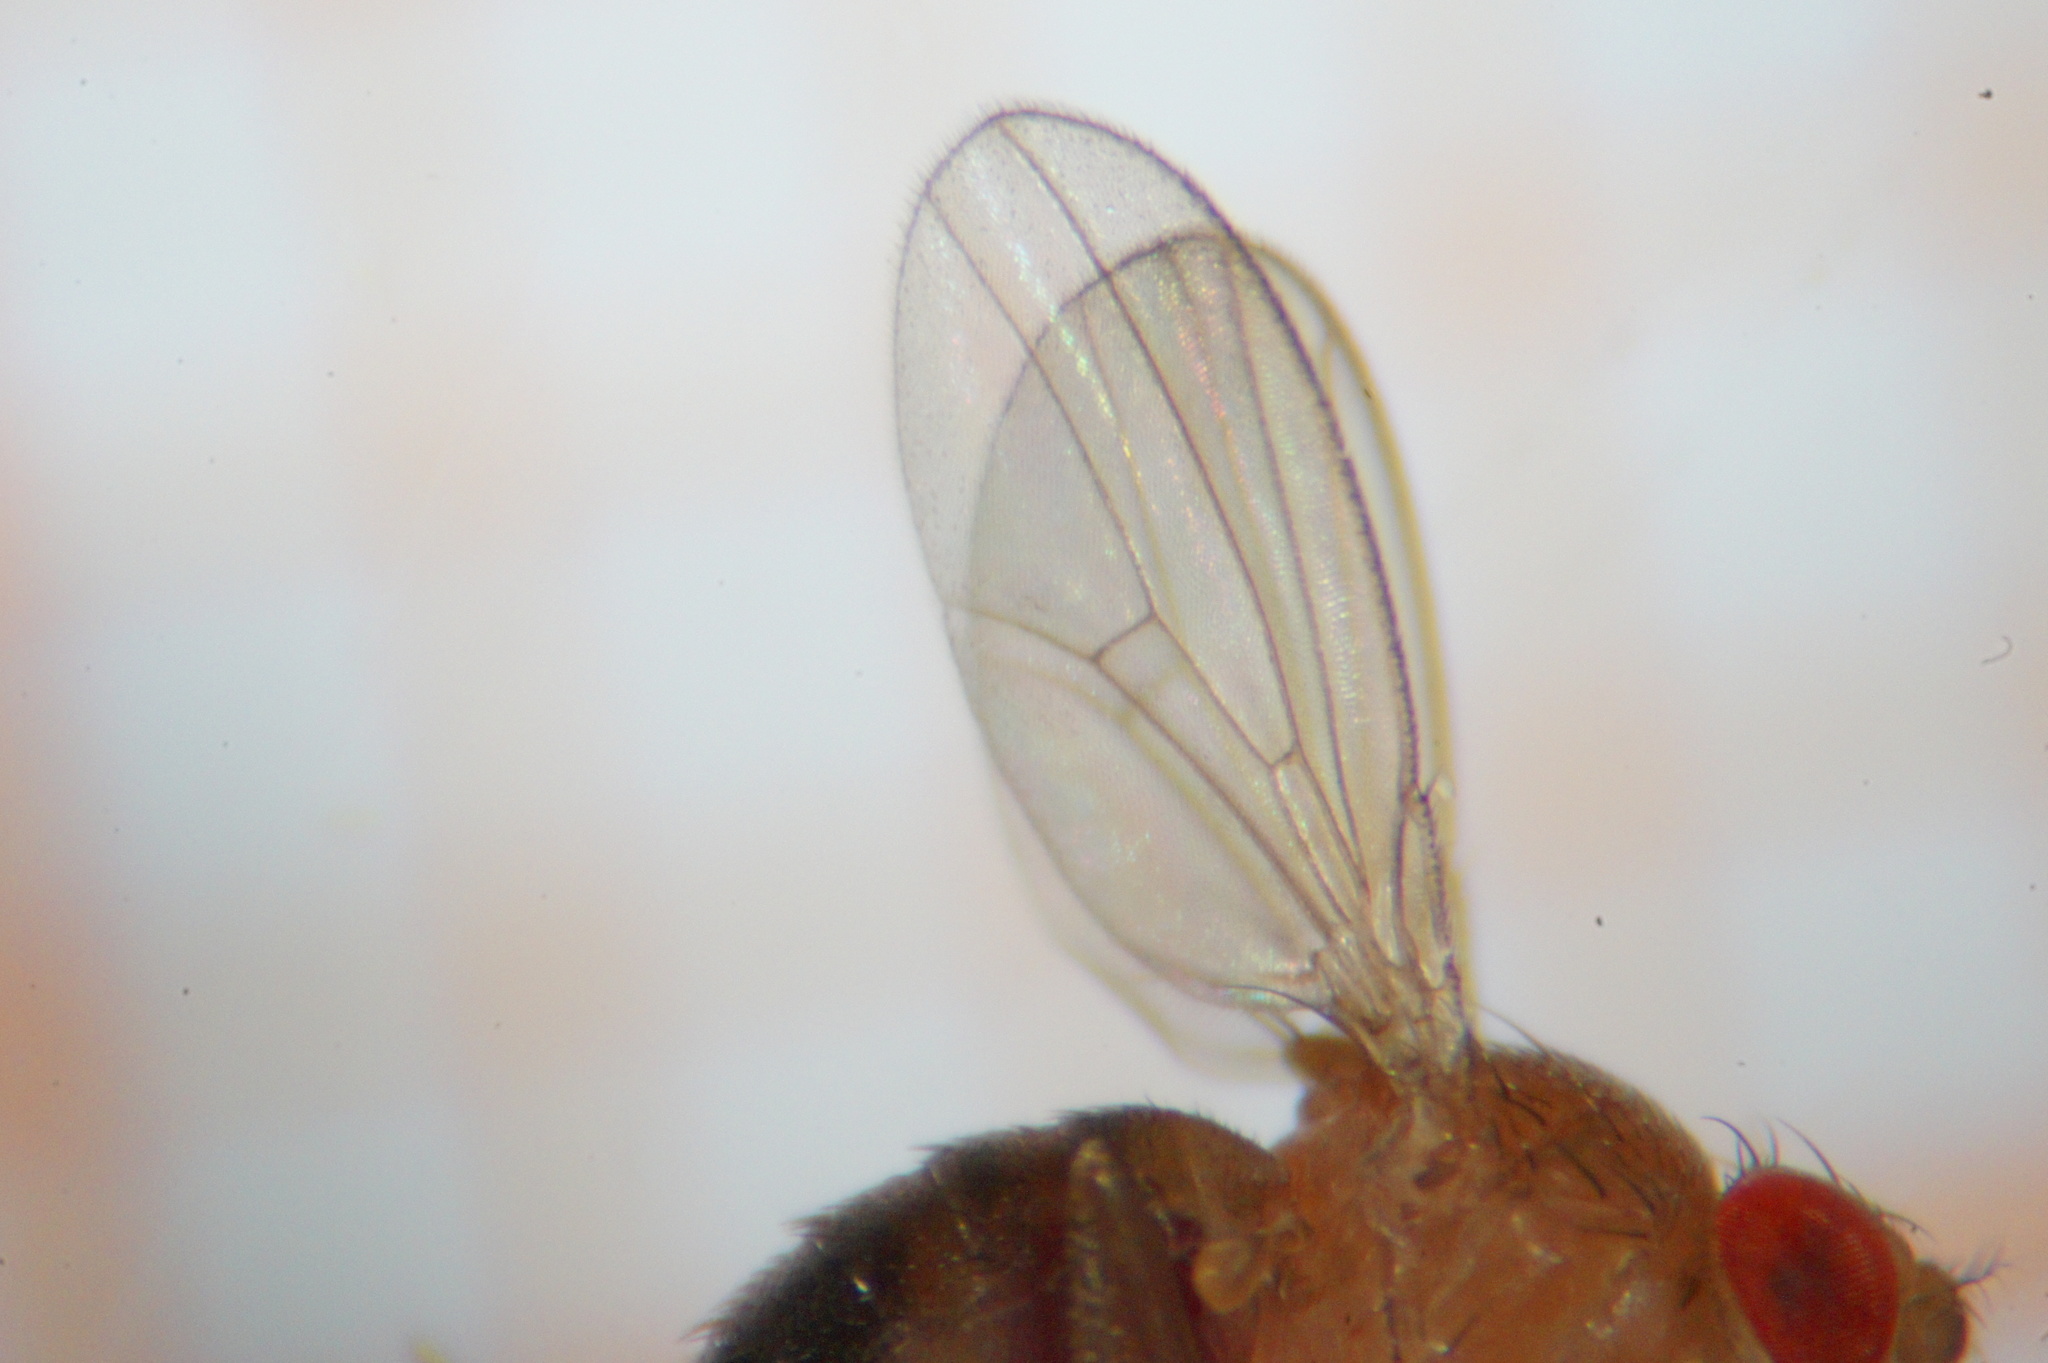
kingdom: Animalia
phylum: Arthropoda
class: Insecta
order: Diptera
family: Drosophilidae
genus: Drosophila
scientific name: Drosophila melanogaster
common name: Pomace fly
